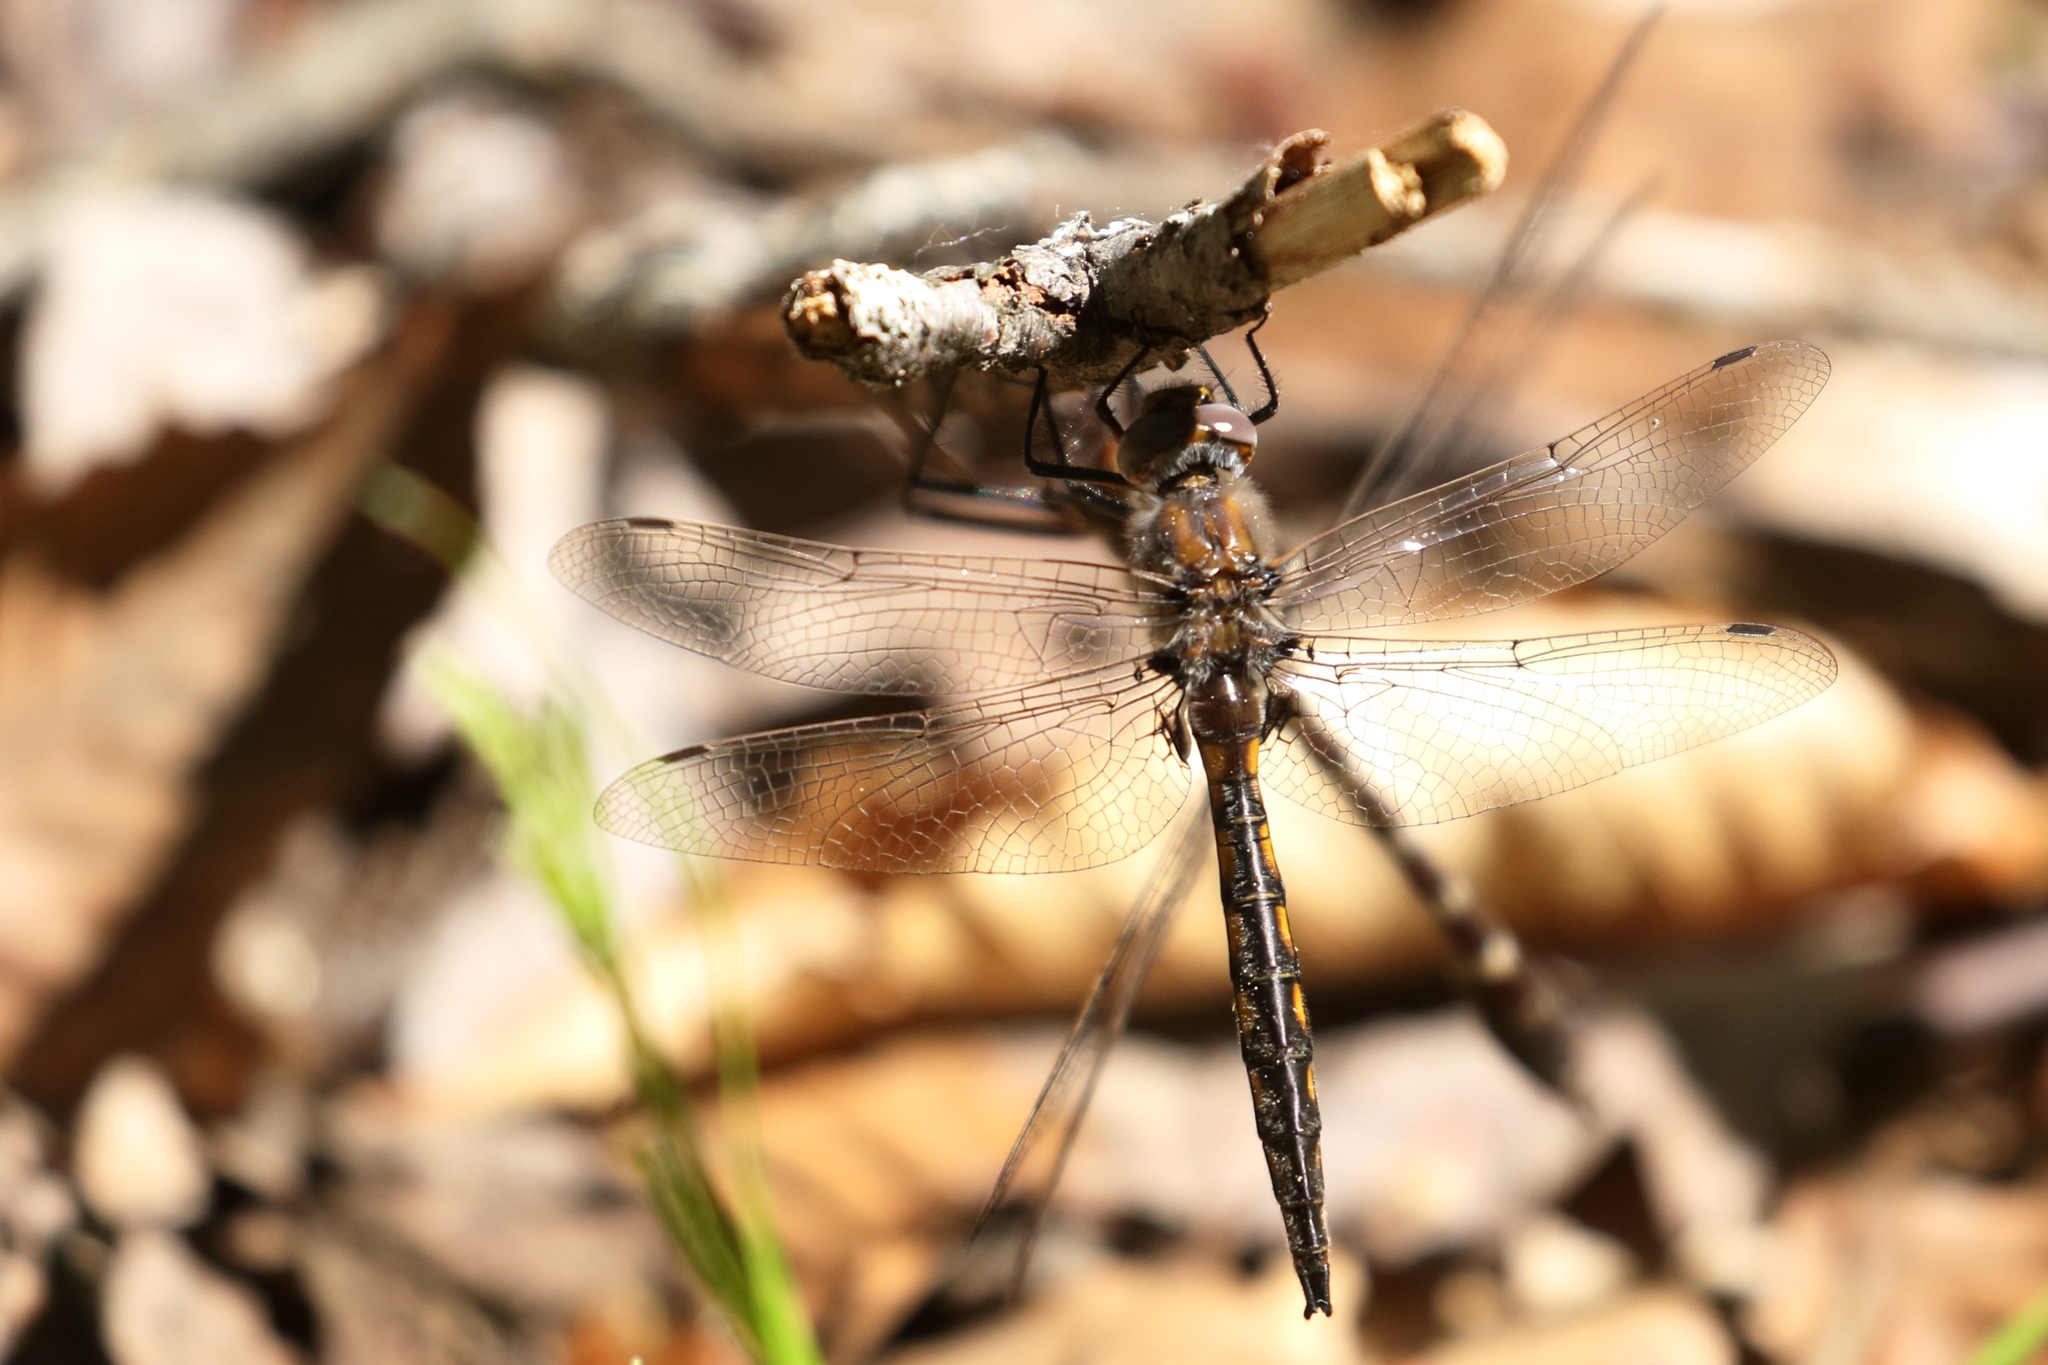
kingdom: Animalia
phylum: Arthropoda
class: Insecta
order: Odonata
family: Corduliidae
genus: Epitheca
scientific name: Epitheca canis
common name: Beaverpond baskettail
